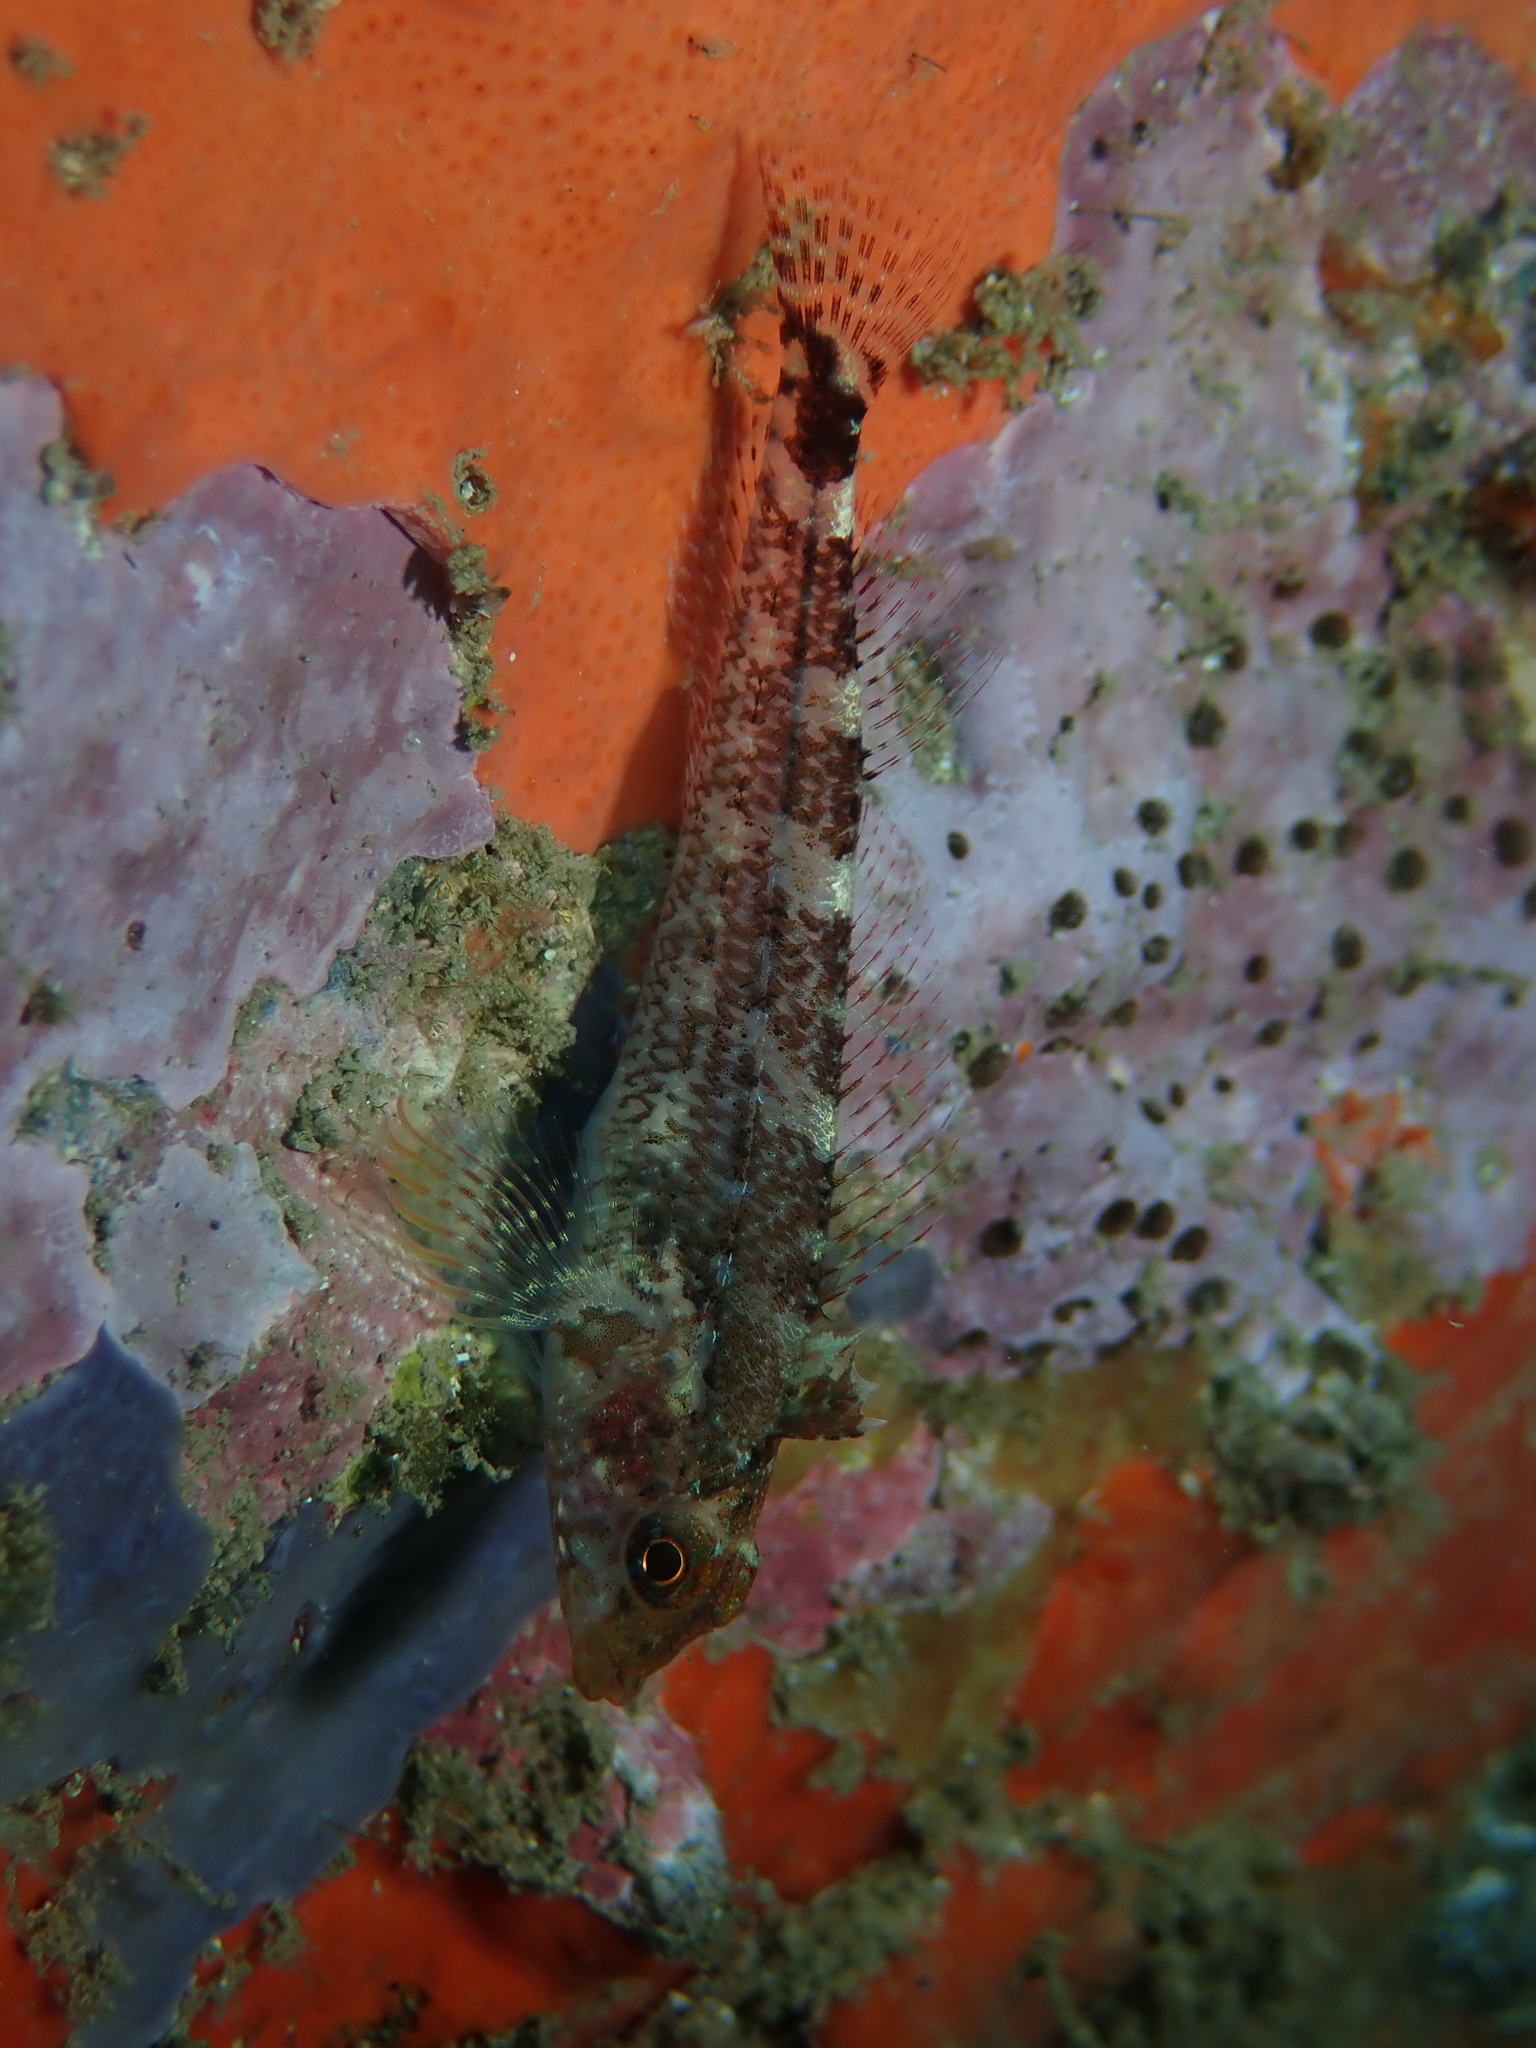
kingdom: Animalia
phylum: Chordata
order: Perciformes
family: Tripterygiidae
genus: Tripterygion
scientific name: Tripterygion delaisi
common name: Black-face blenny
